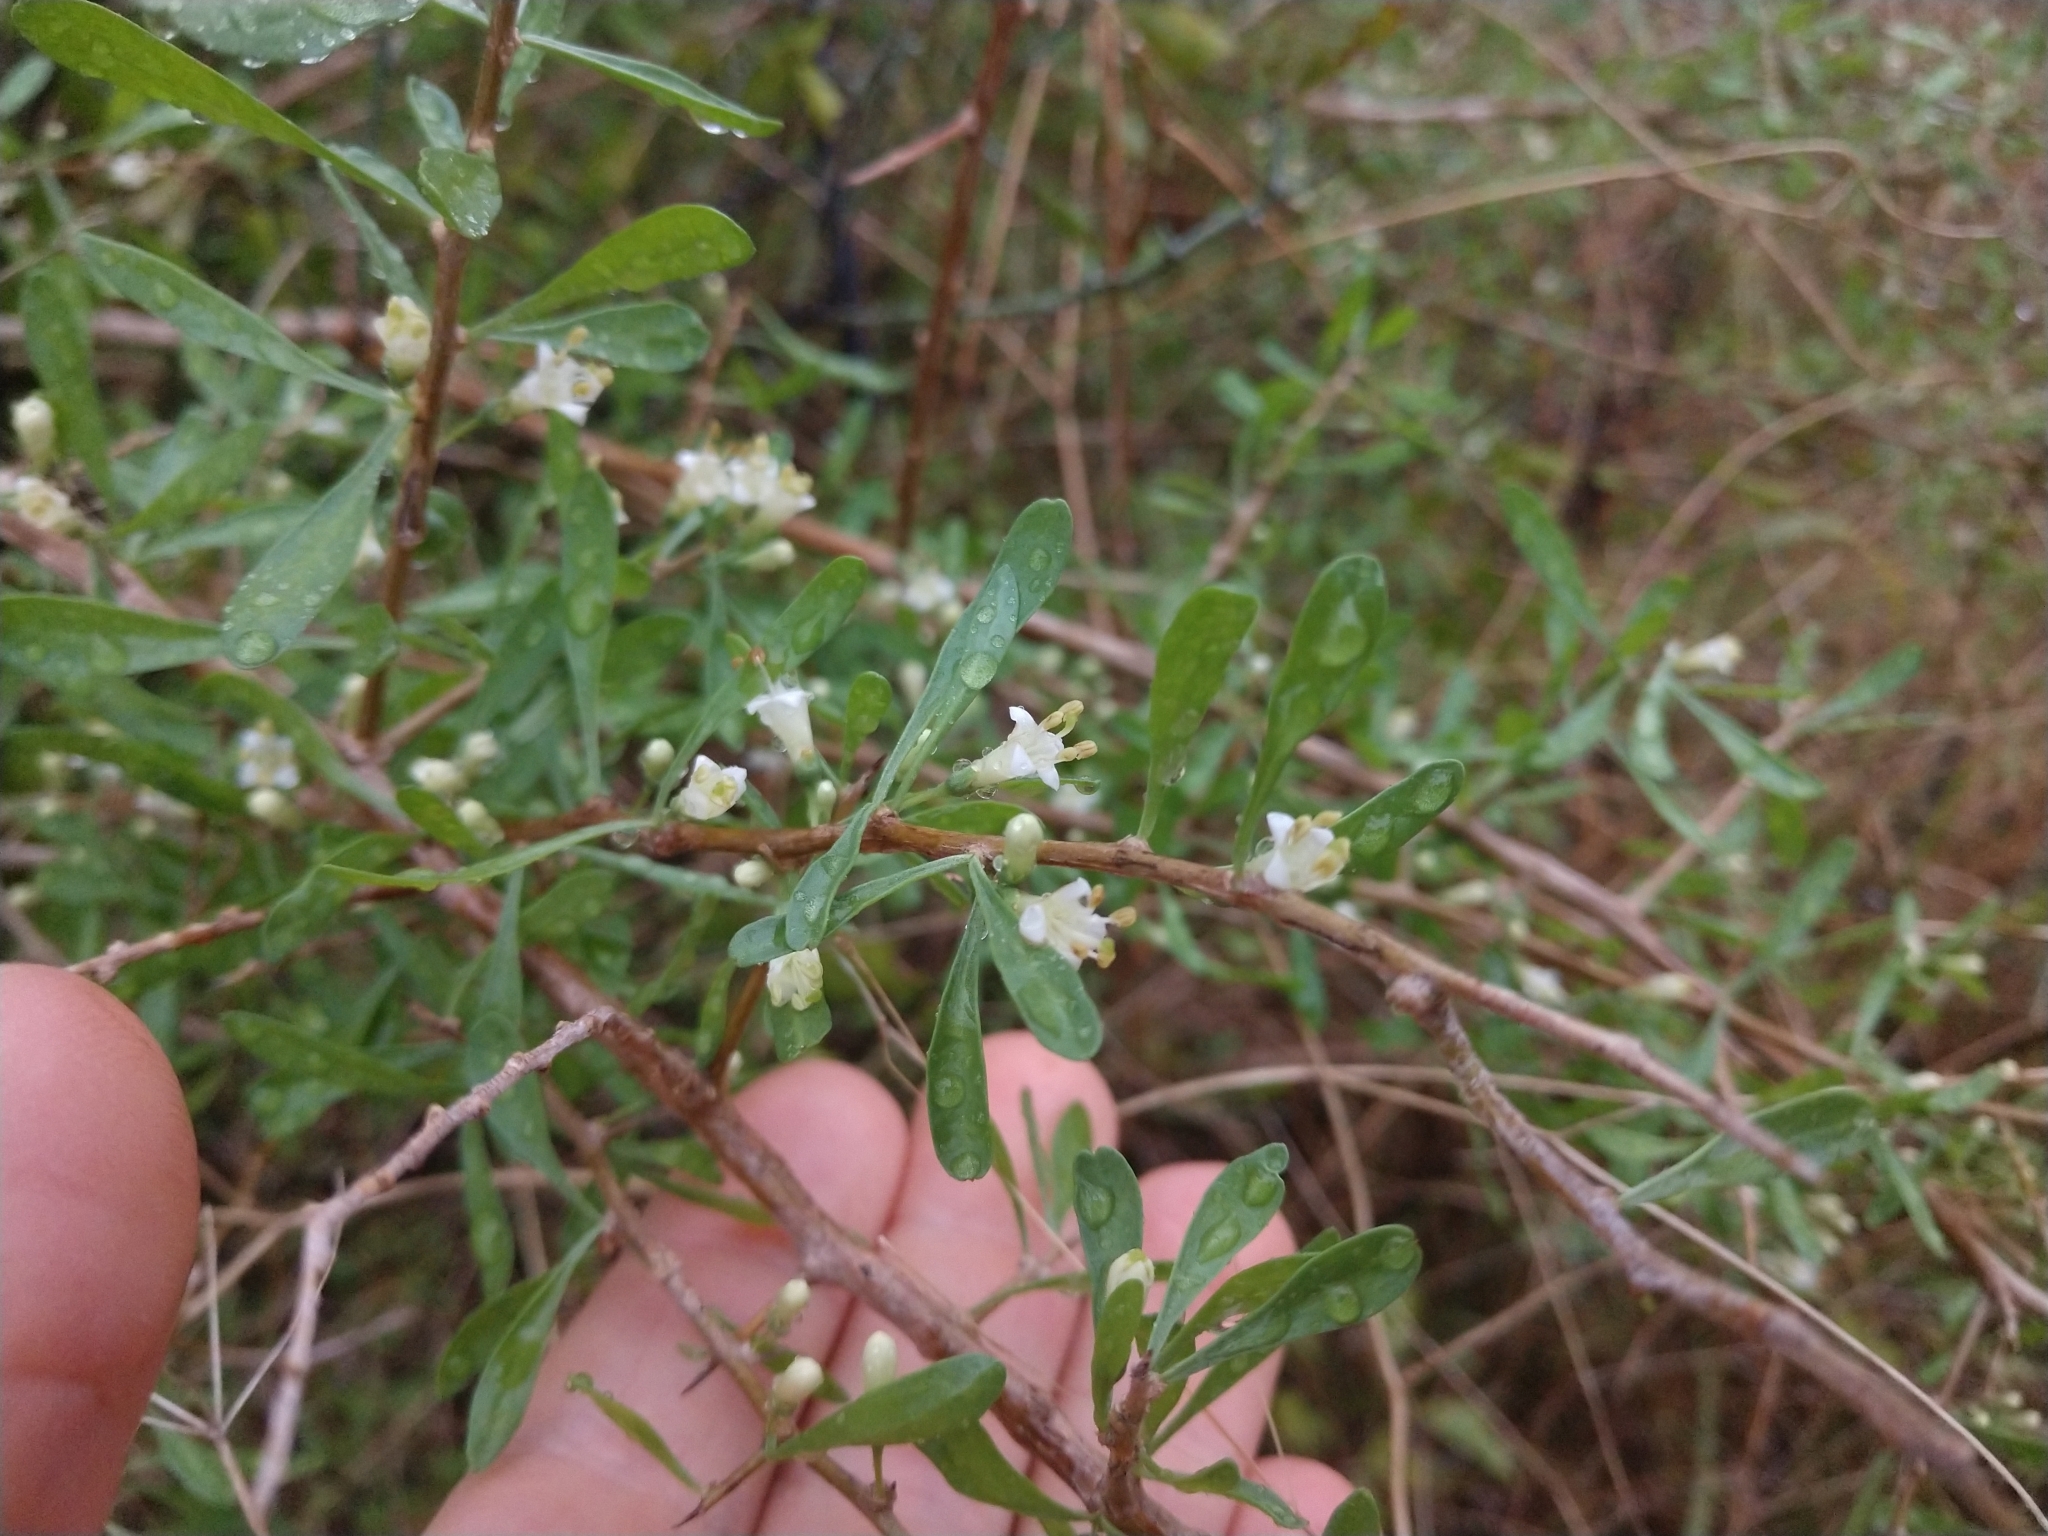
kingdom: Plantae
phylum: Tracheophyta
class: Magnoliopsida
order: Solanales
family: Solanaceae
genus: Lycium
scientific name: Lycium berlandieri
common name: Berlandier wolfberry
